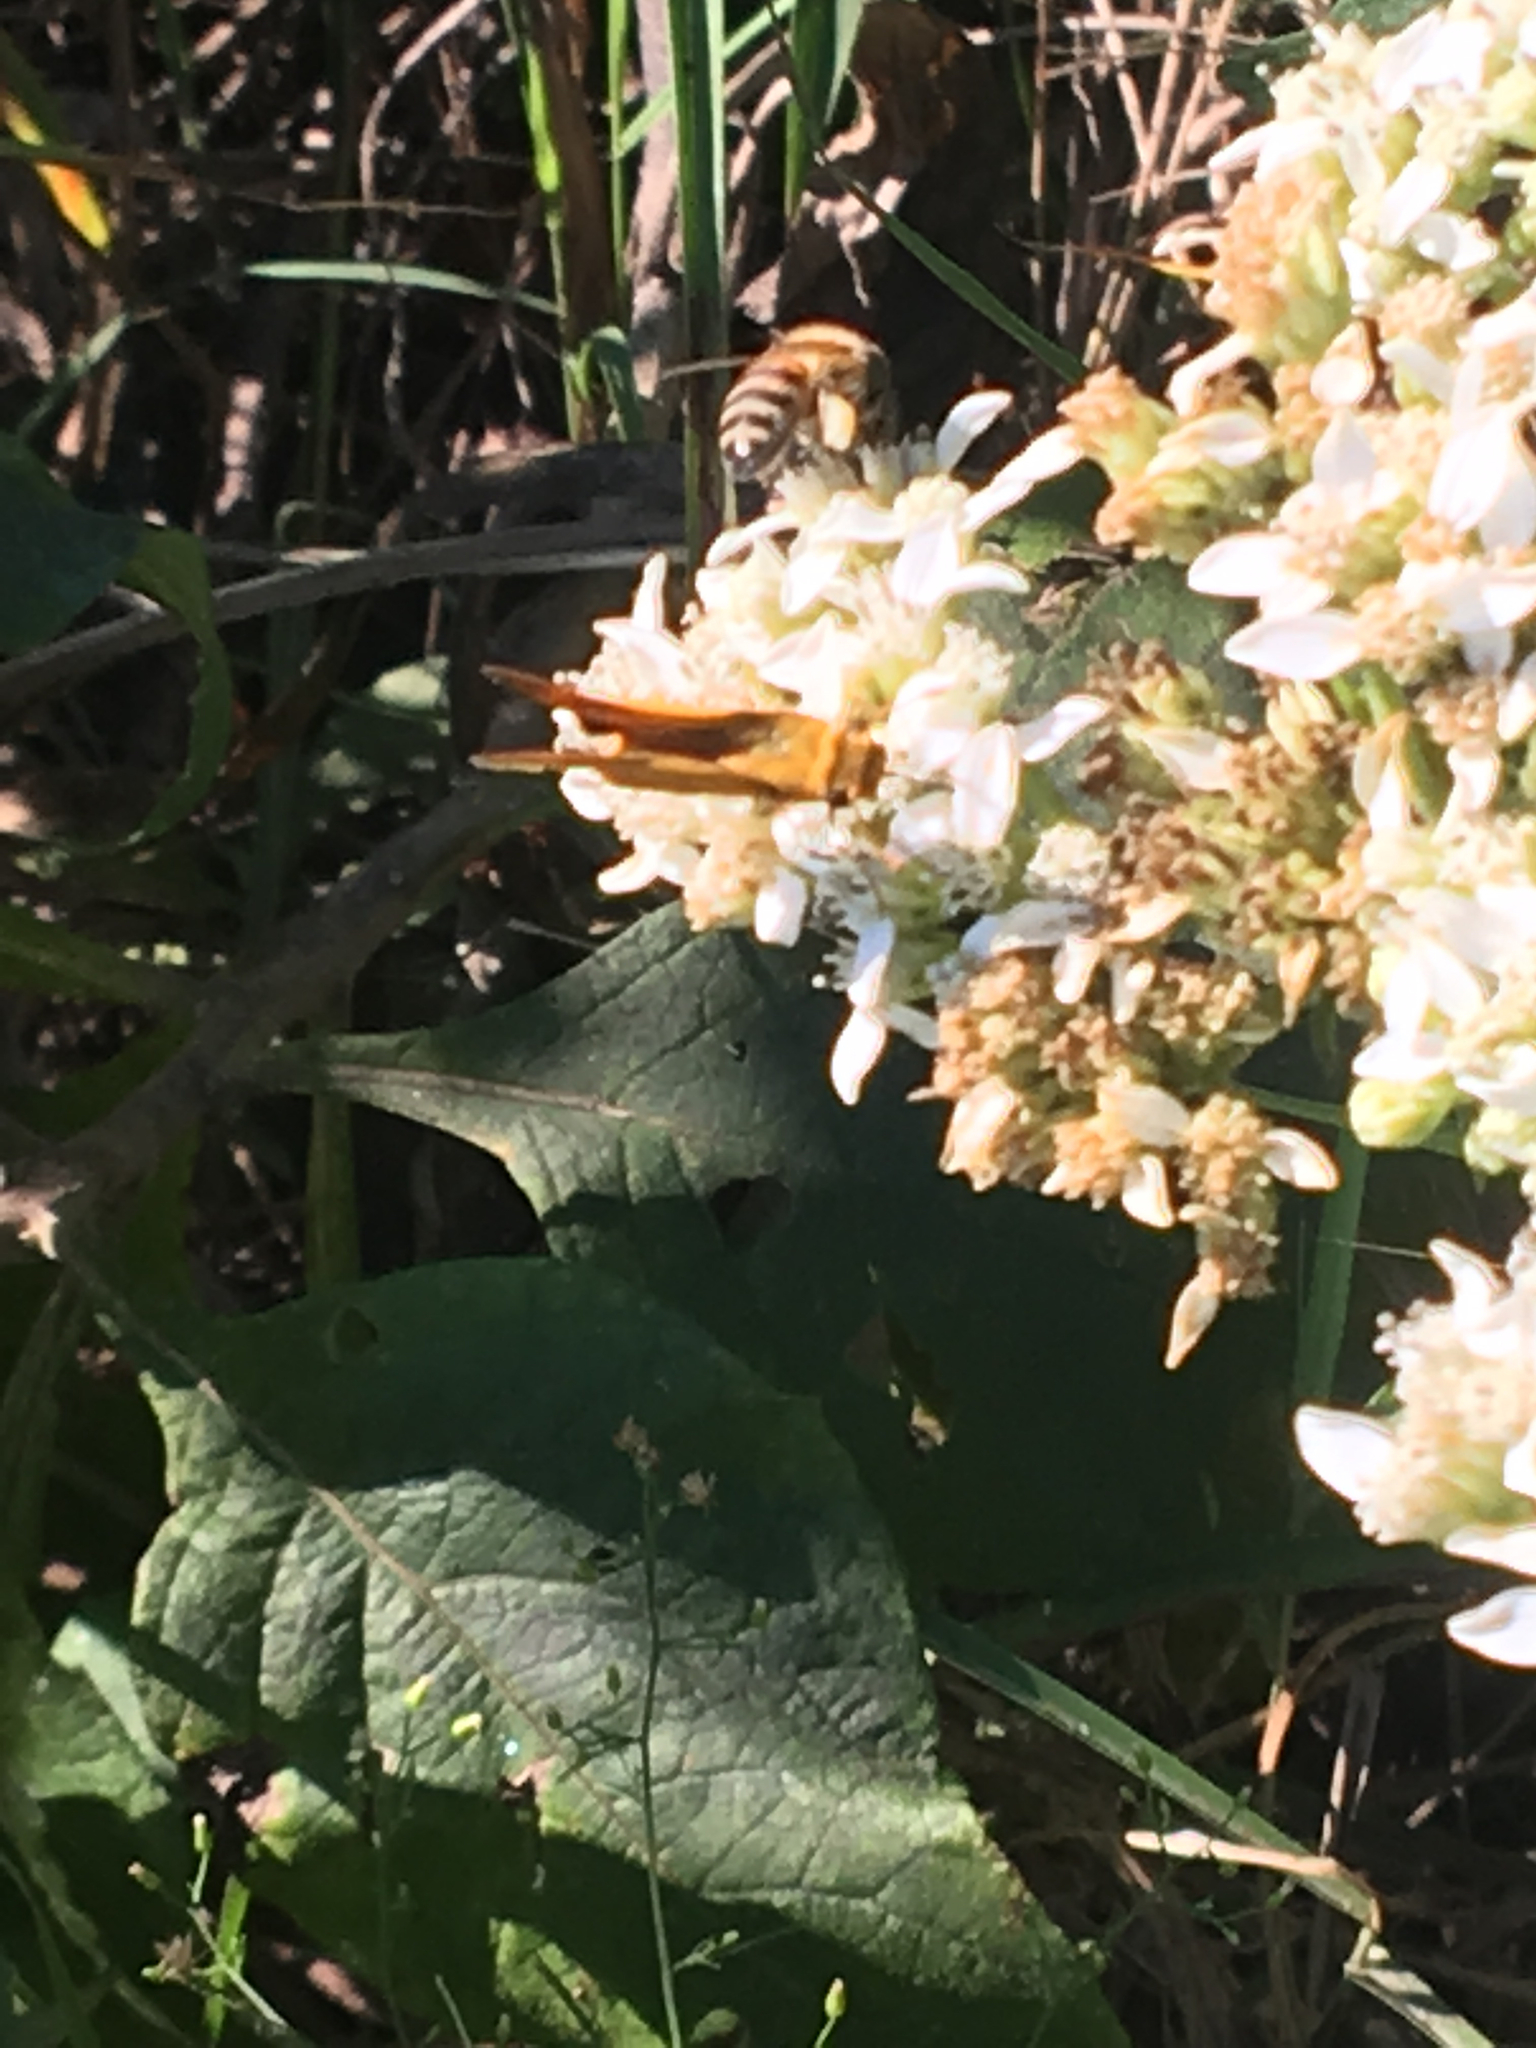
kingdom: Animalia
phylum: Arthropoda
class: Insecta
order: Lepidoptera
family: Hesperiidae
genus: Hylephila
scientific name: Hylephila phyleus
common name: Fiery skipper
